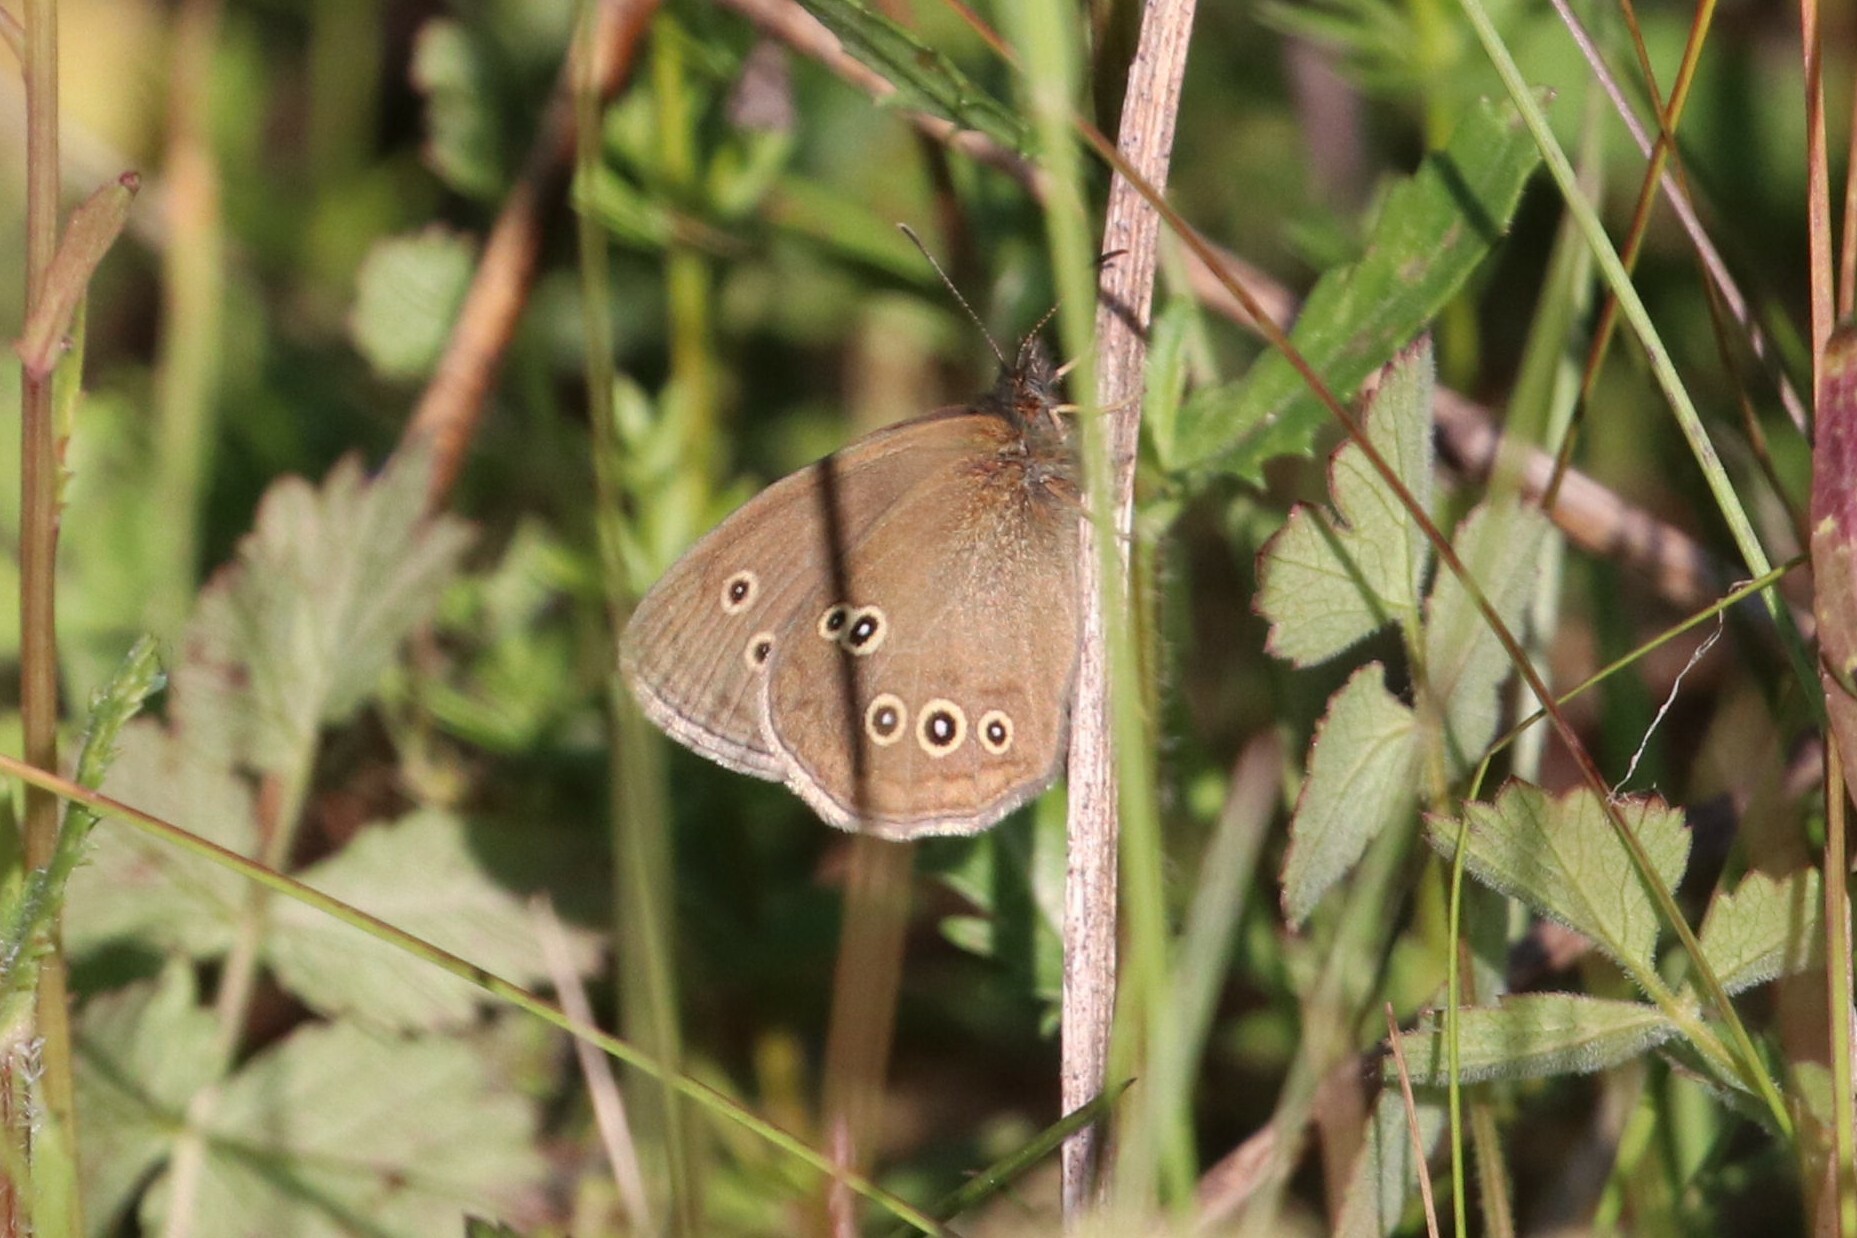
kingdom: Animalia
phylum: Arthropoda
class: Insecta
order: Lepidoptera
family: Nymphalidae
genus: Aphantopus
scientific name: Aphantopus hyperantus
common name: Ringlet
